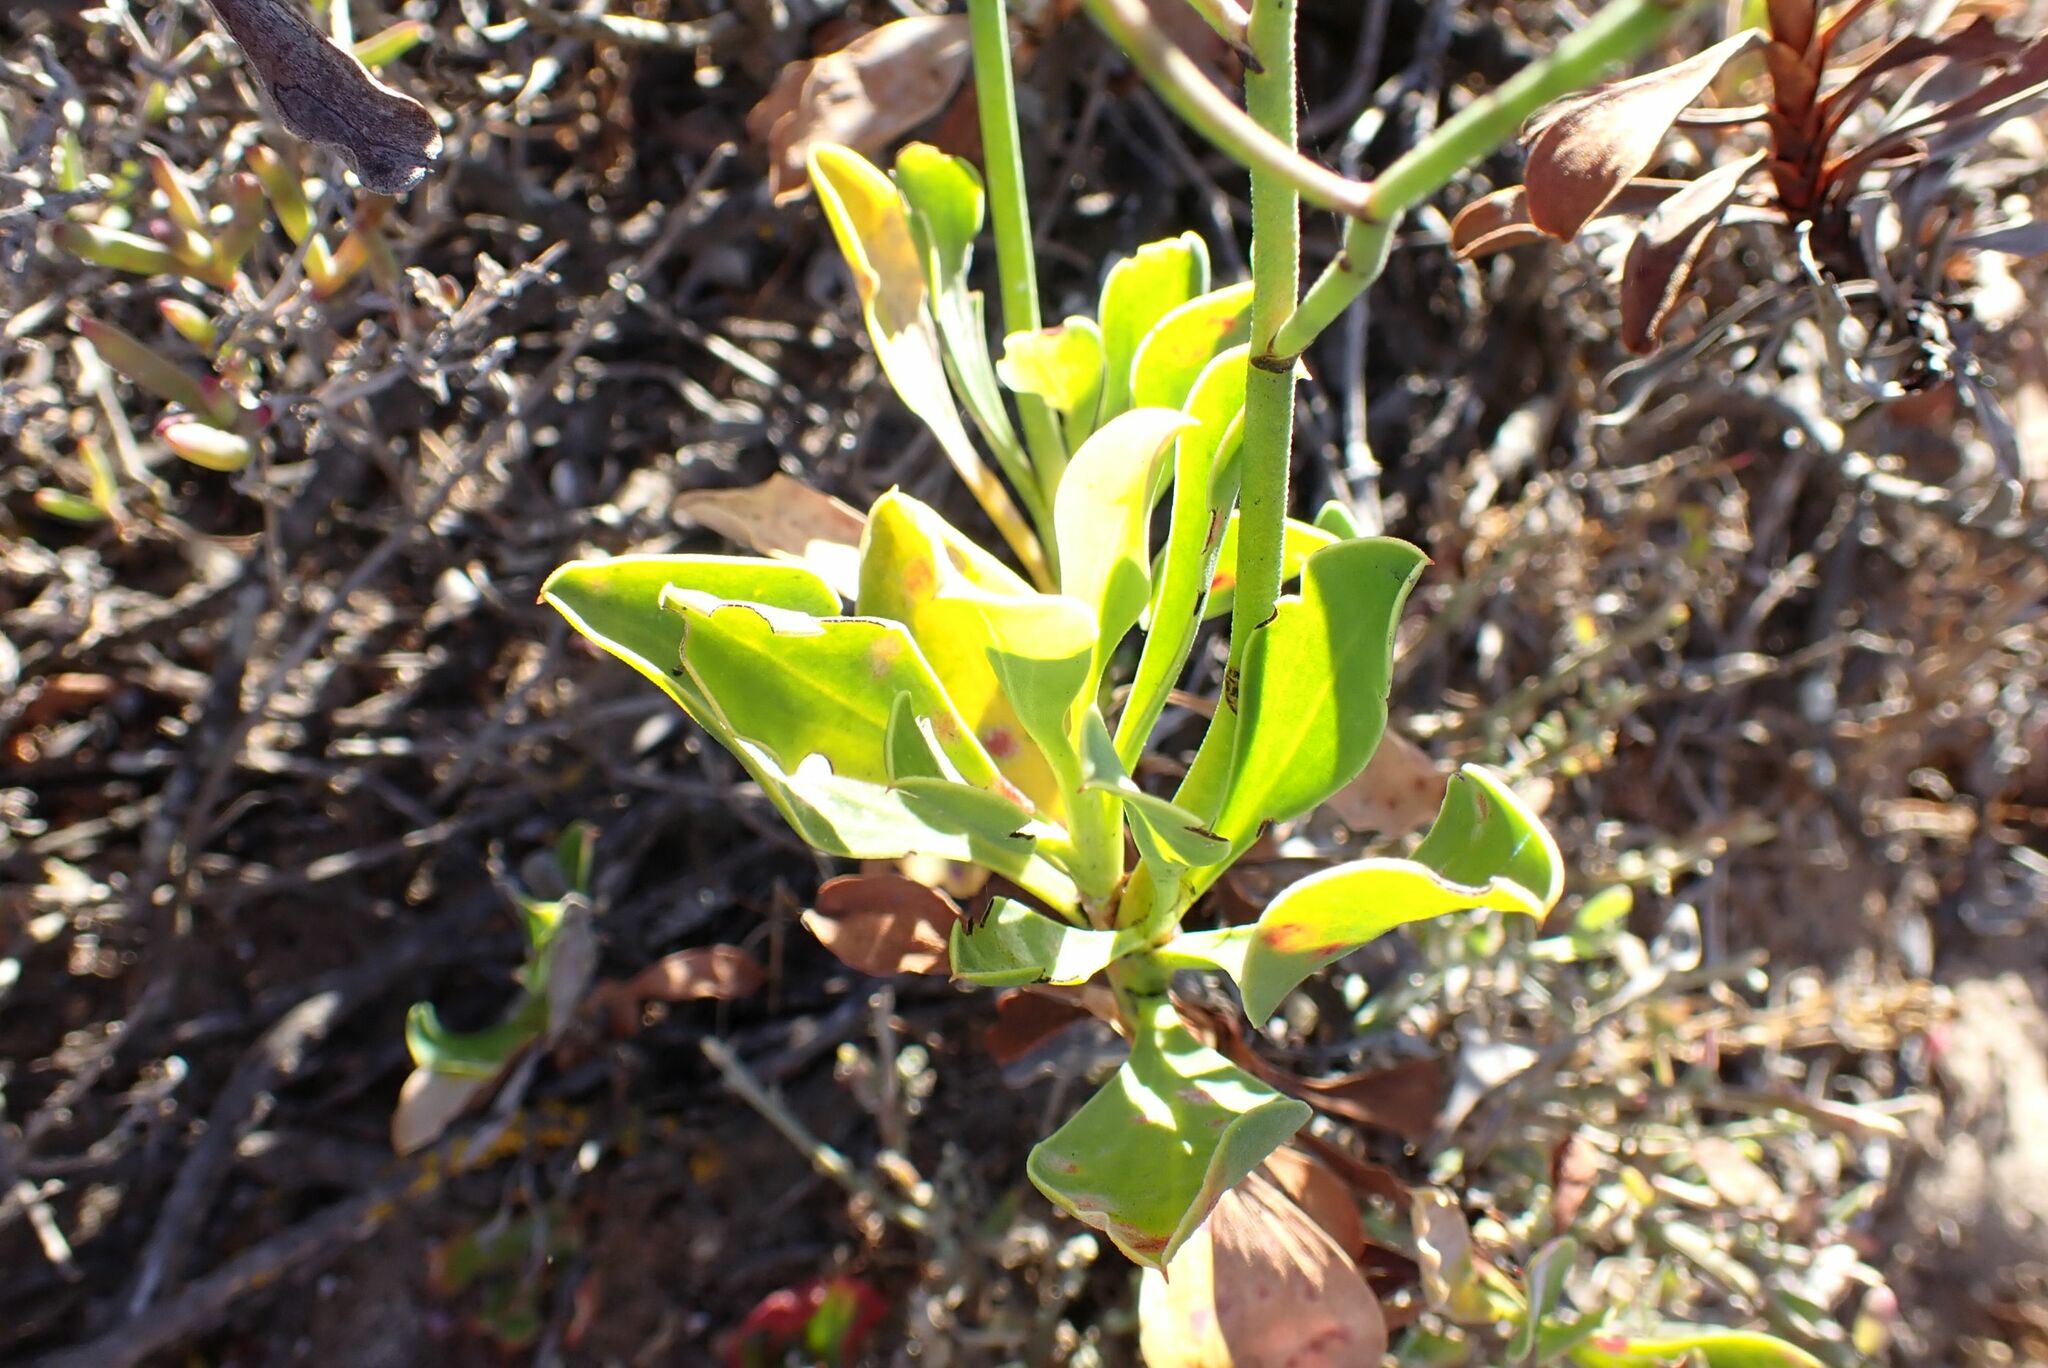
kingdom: Plantae
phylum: Tracheophyta
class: Magnoliopsida
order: Caryophyllales
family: Plumbaginaceae
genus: Limonium
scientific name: Limonium peregrinum
